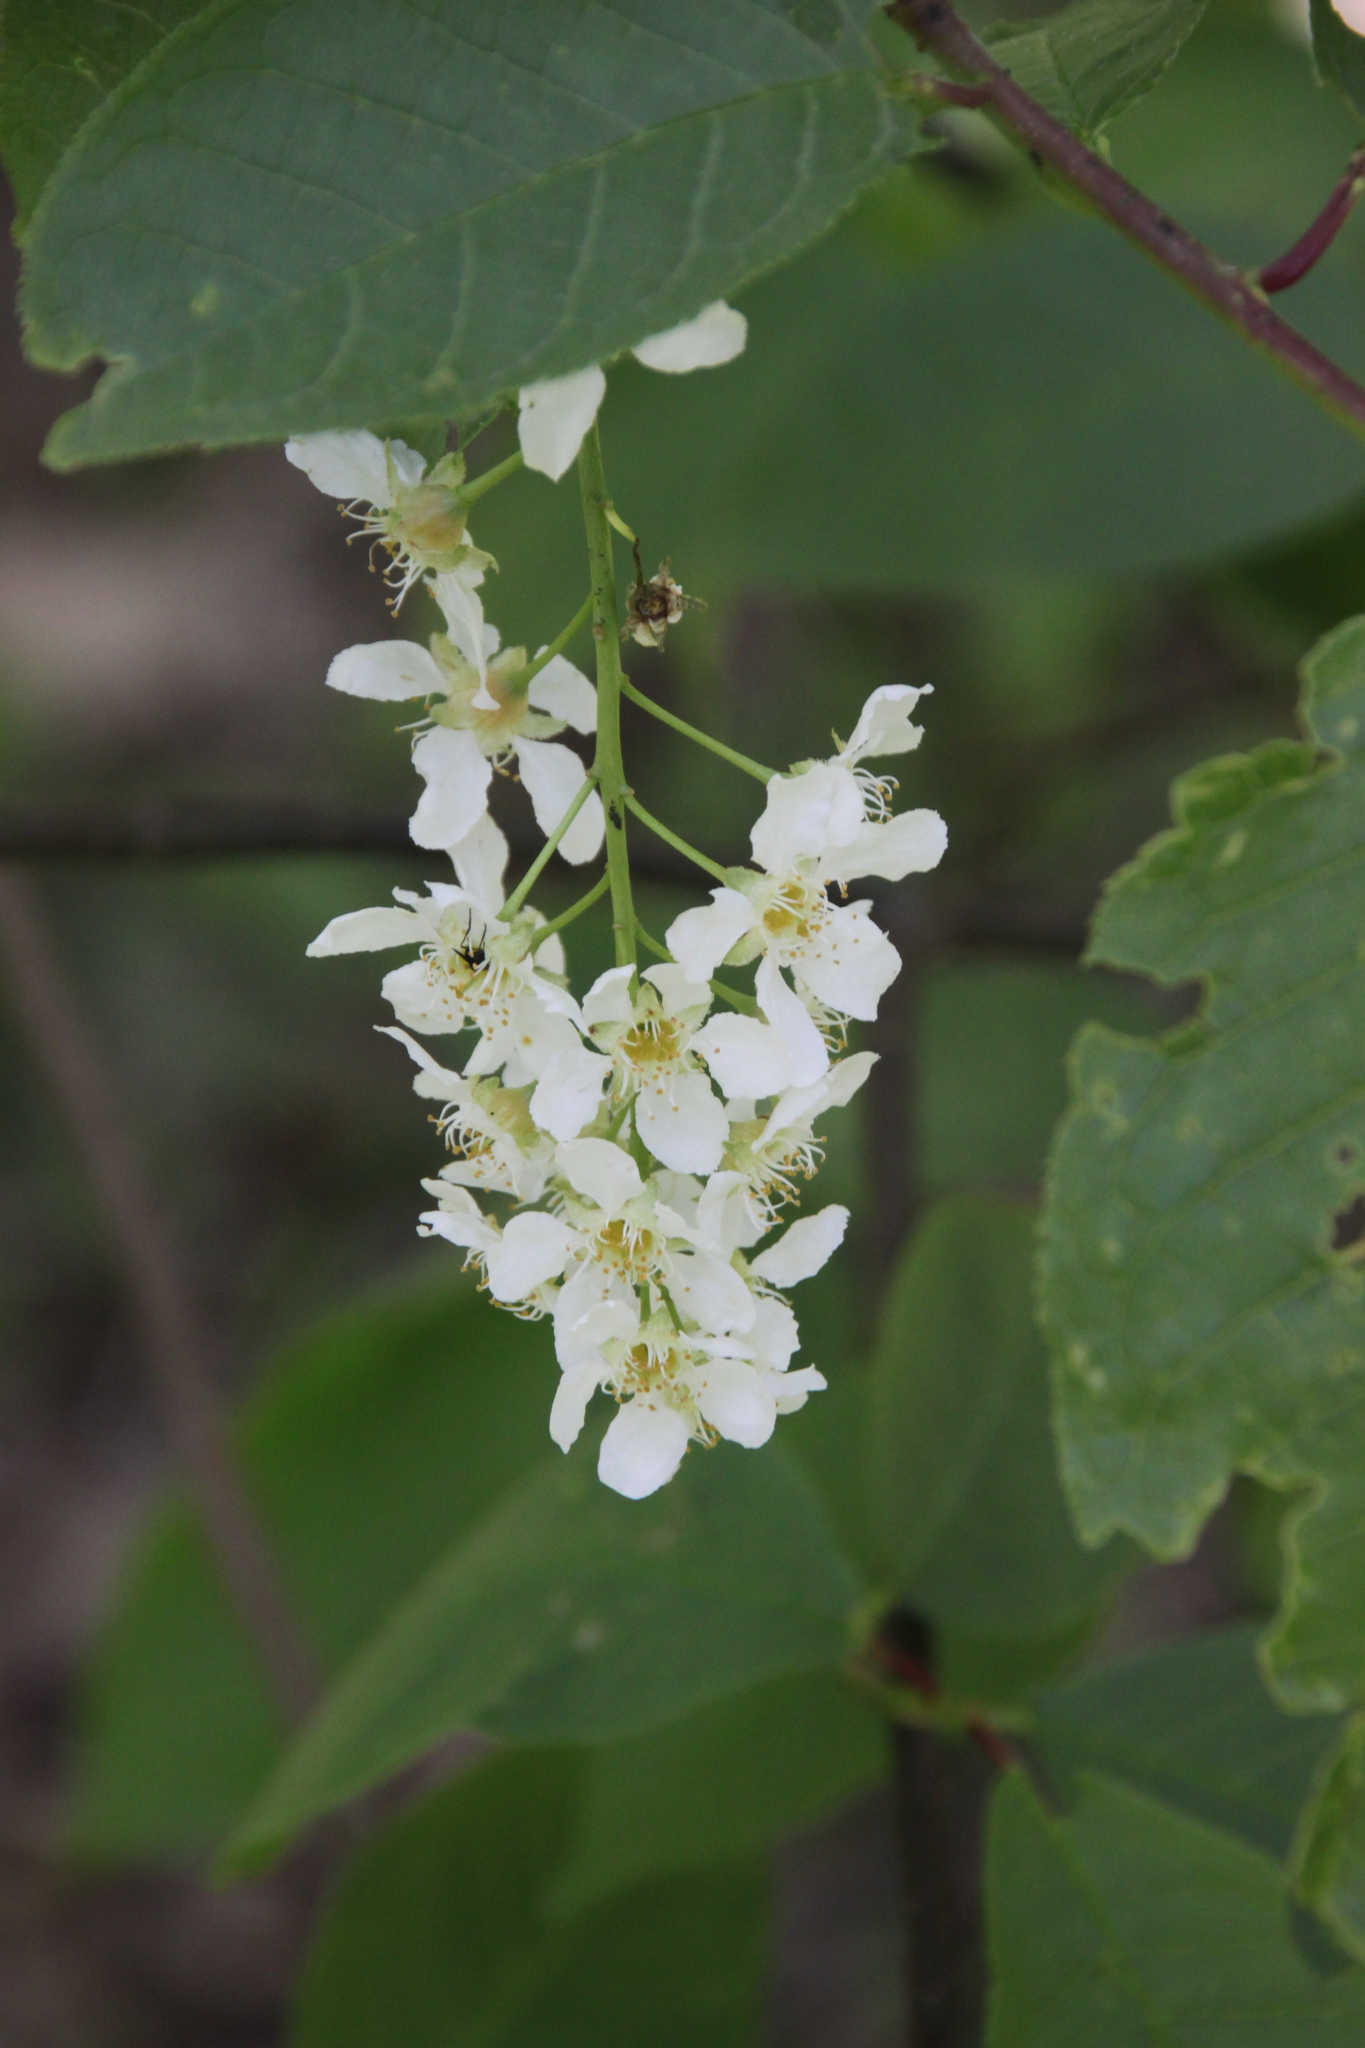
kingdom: Plantae
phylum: Tracheophyta
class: Magnoliopsida
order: Rosales
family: Rosaceae
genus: Prunus
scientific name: Prunus padus
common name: Bird cherry
